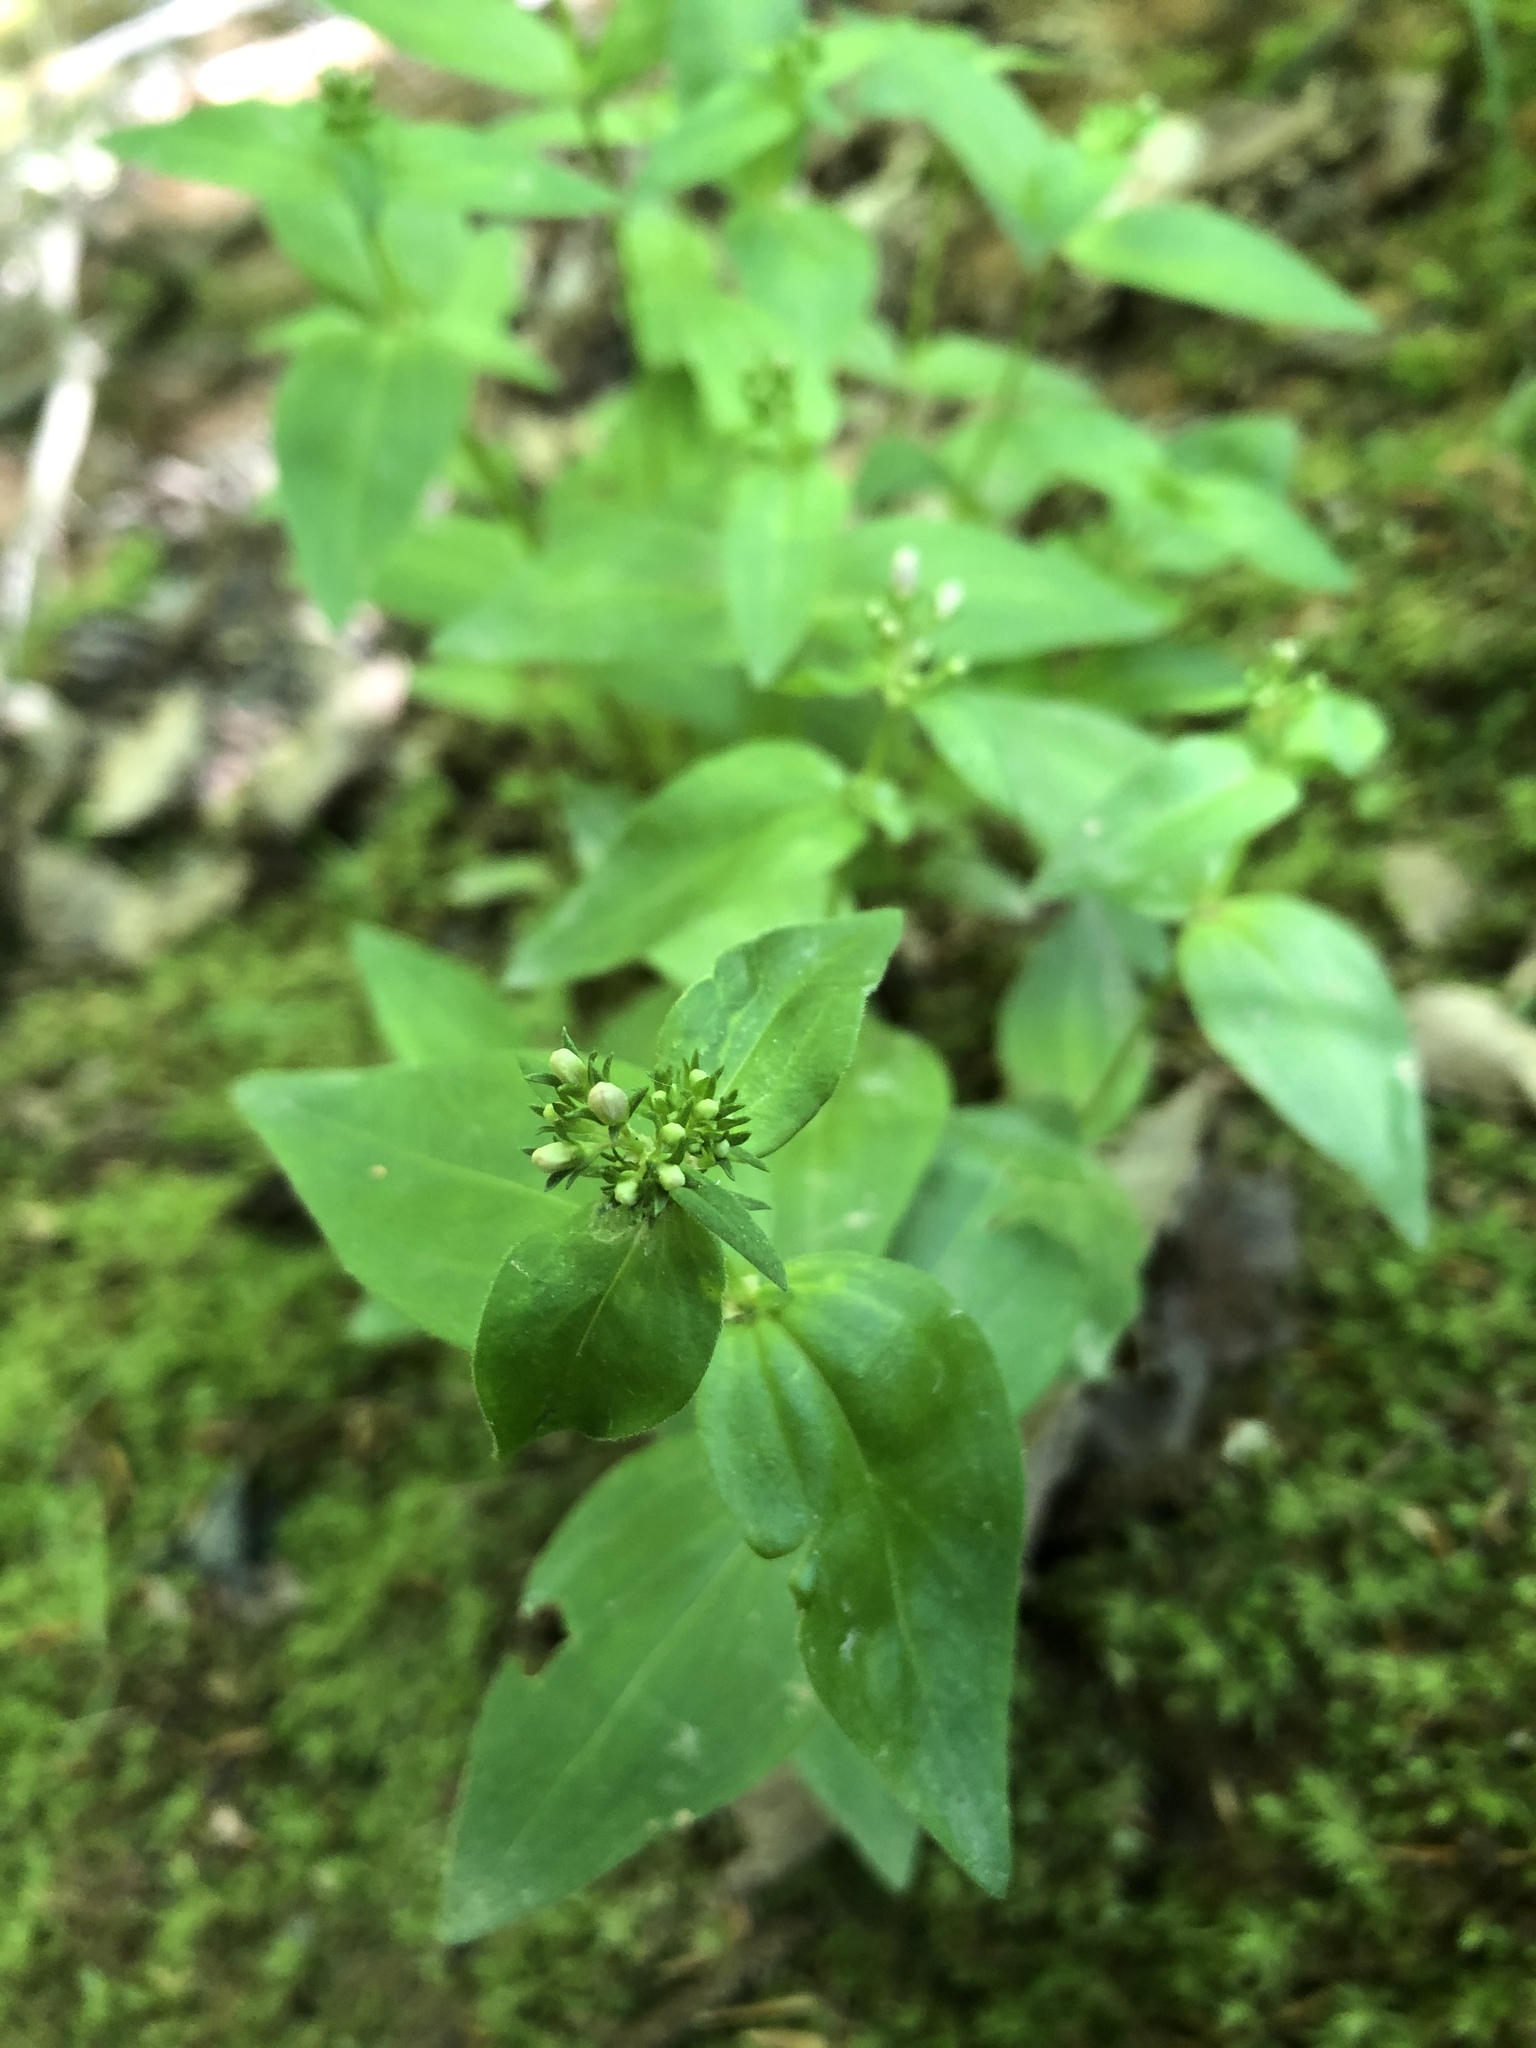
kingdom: Plantae
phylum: Tracheophyta
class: Magnoliopsida
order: Gentianales
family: Rubiaceae
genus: Houstonia
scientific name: Houstonia purpurea
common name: Summer bluet
